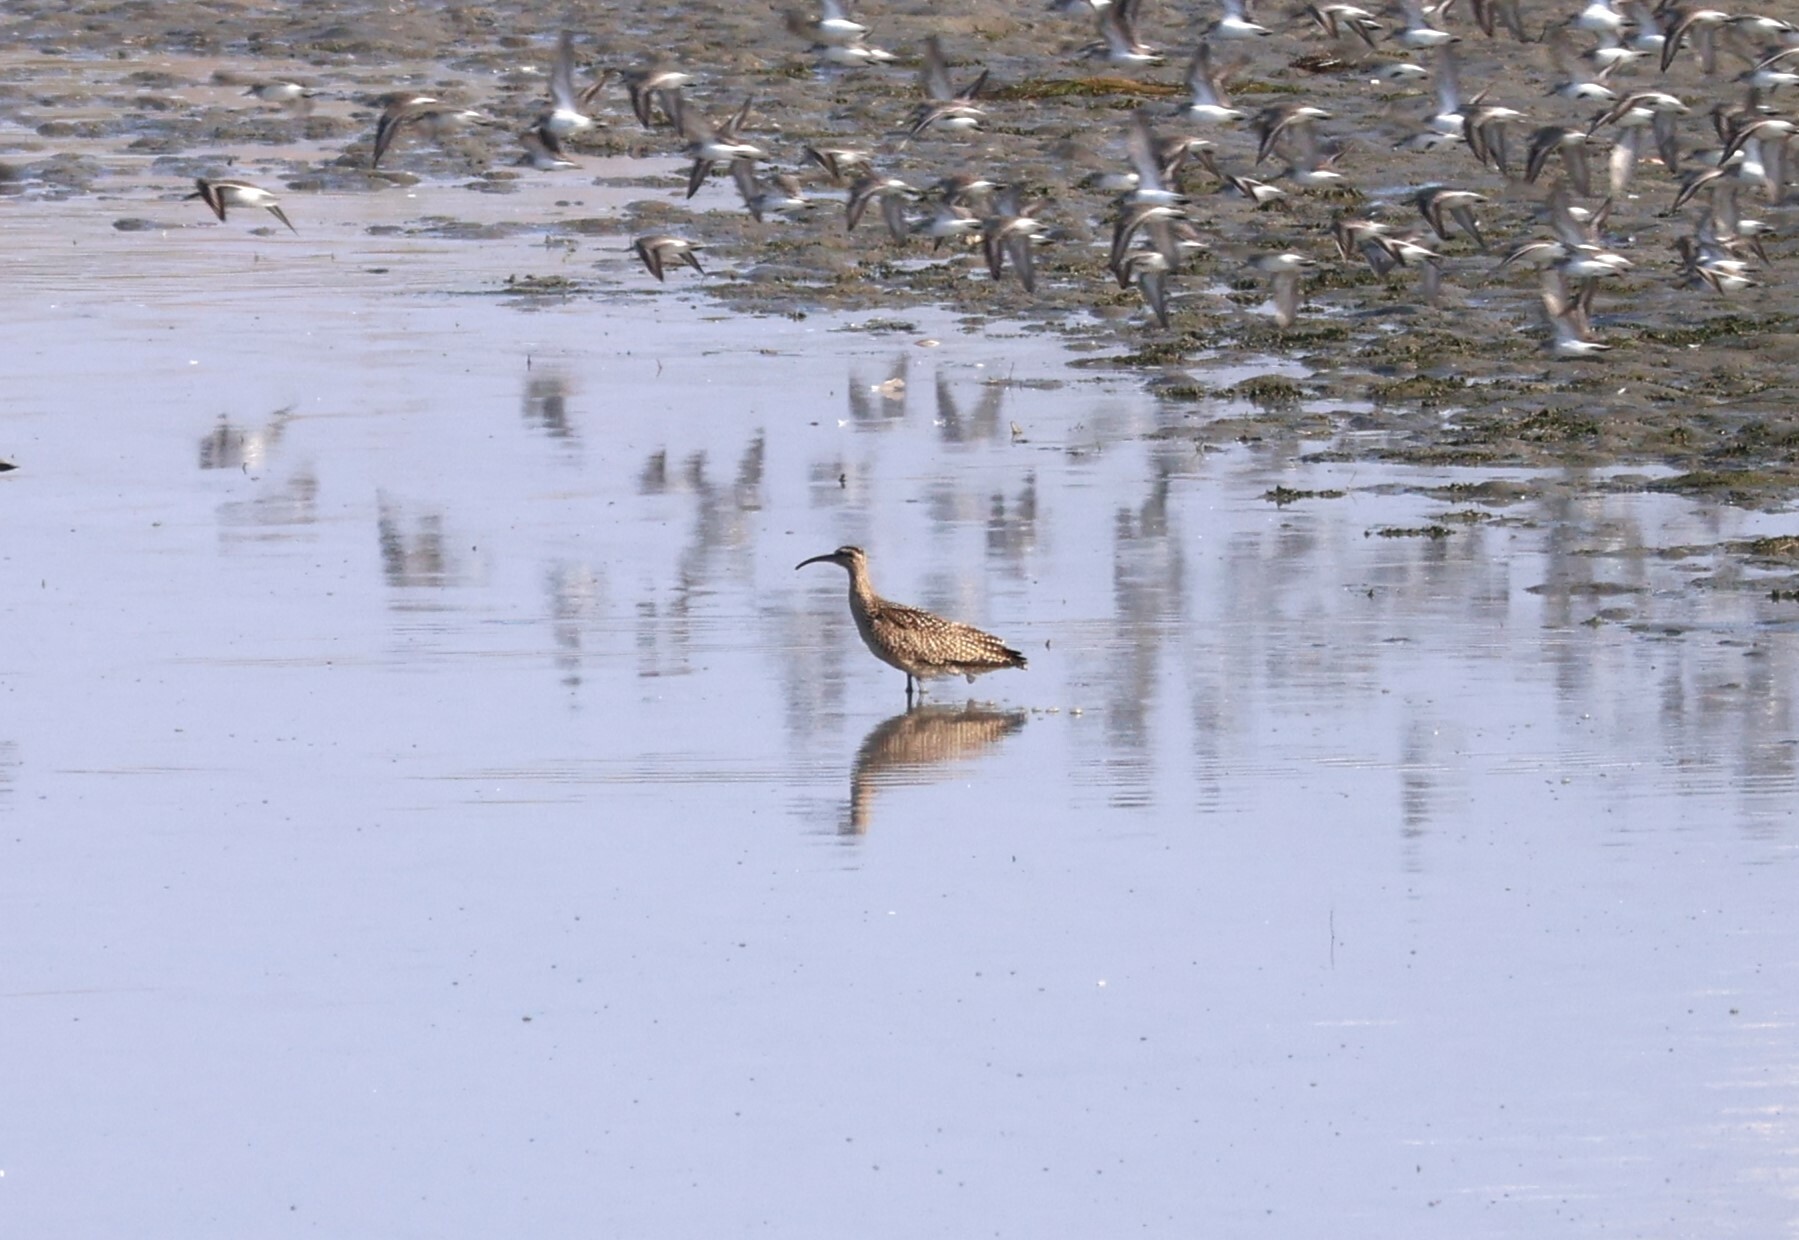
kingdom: Animalia
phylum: Chordata
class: Aves
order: Charadriiformes
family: Scolopacidae
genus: Numenius
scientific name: Numenius phaeopus
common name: Whimbrel
